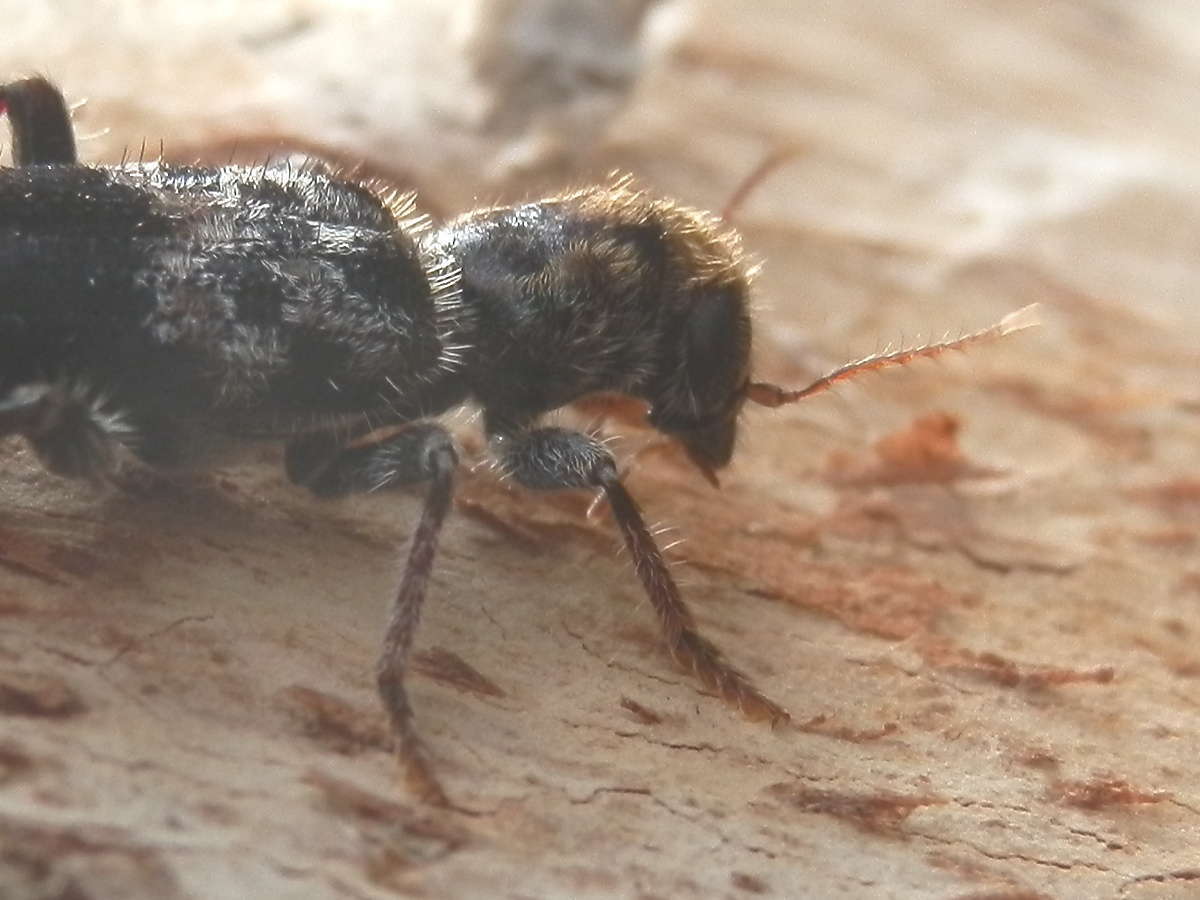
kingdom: Animalia
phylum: Arthropoda
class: Insecta
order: Coleoptera
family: Cleridae
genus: Stigmatium
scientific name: Stigmatium
